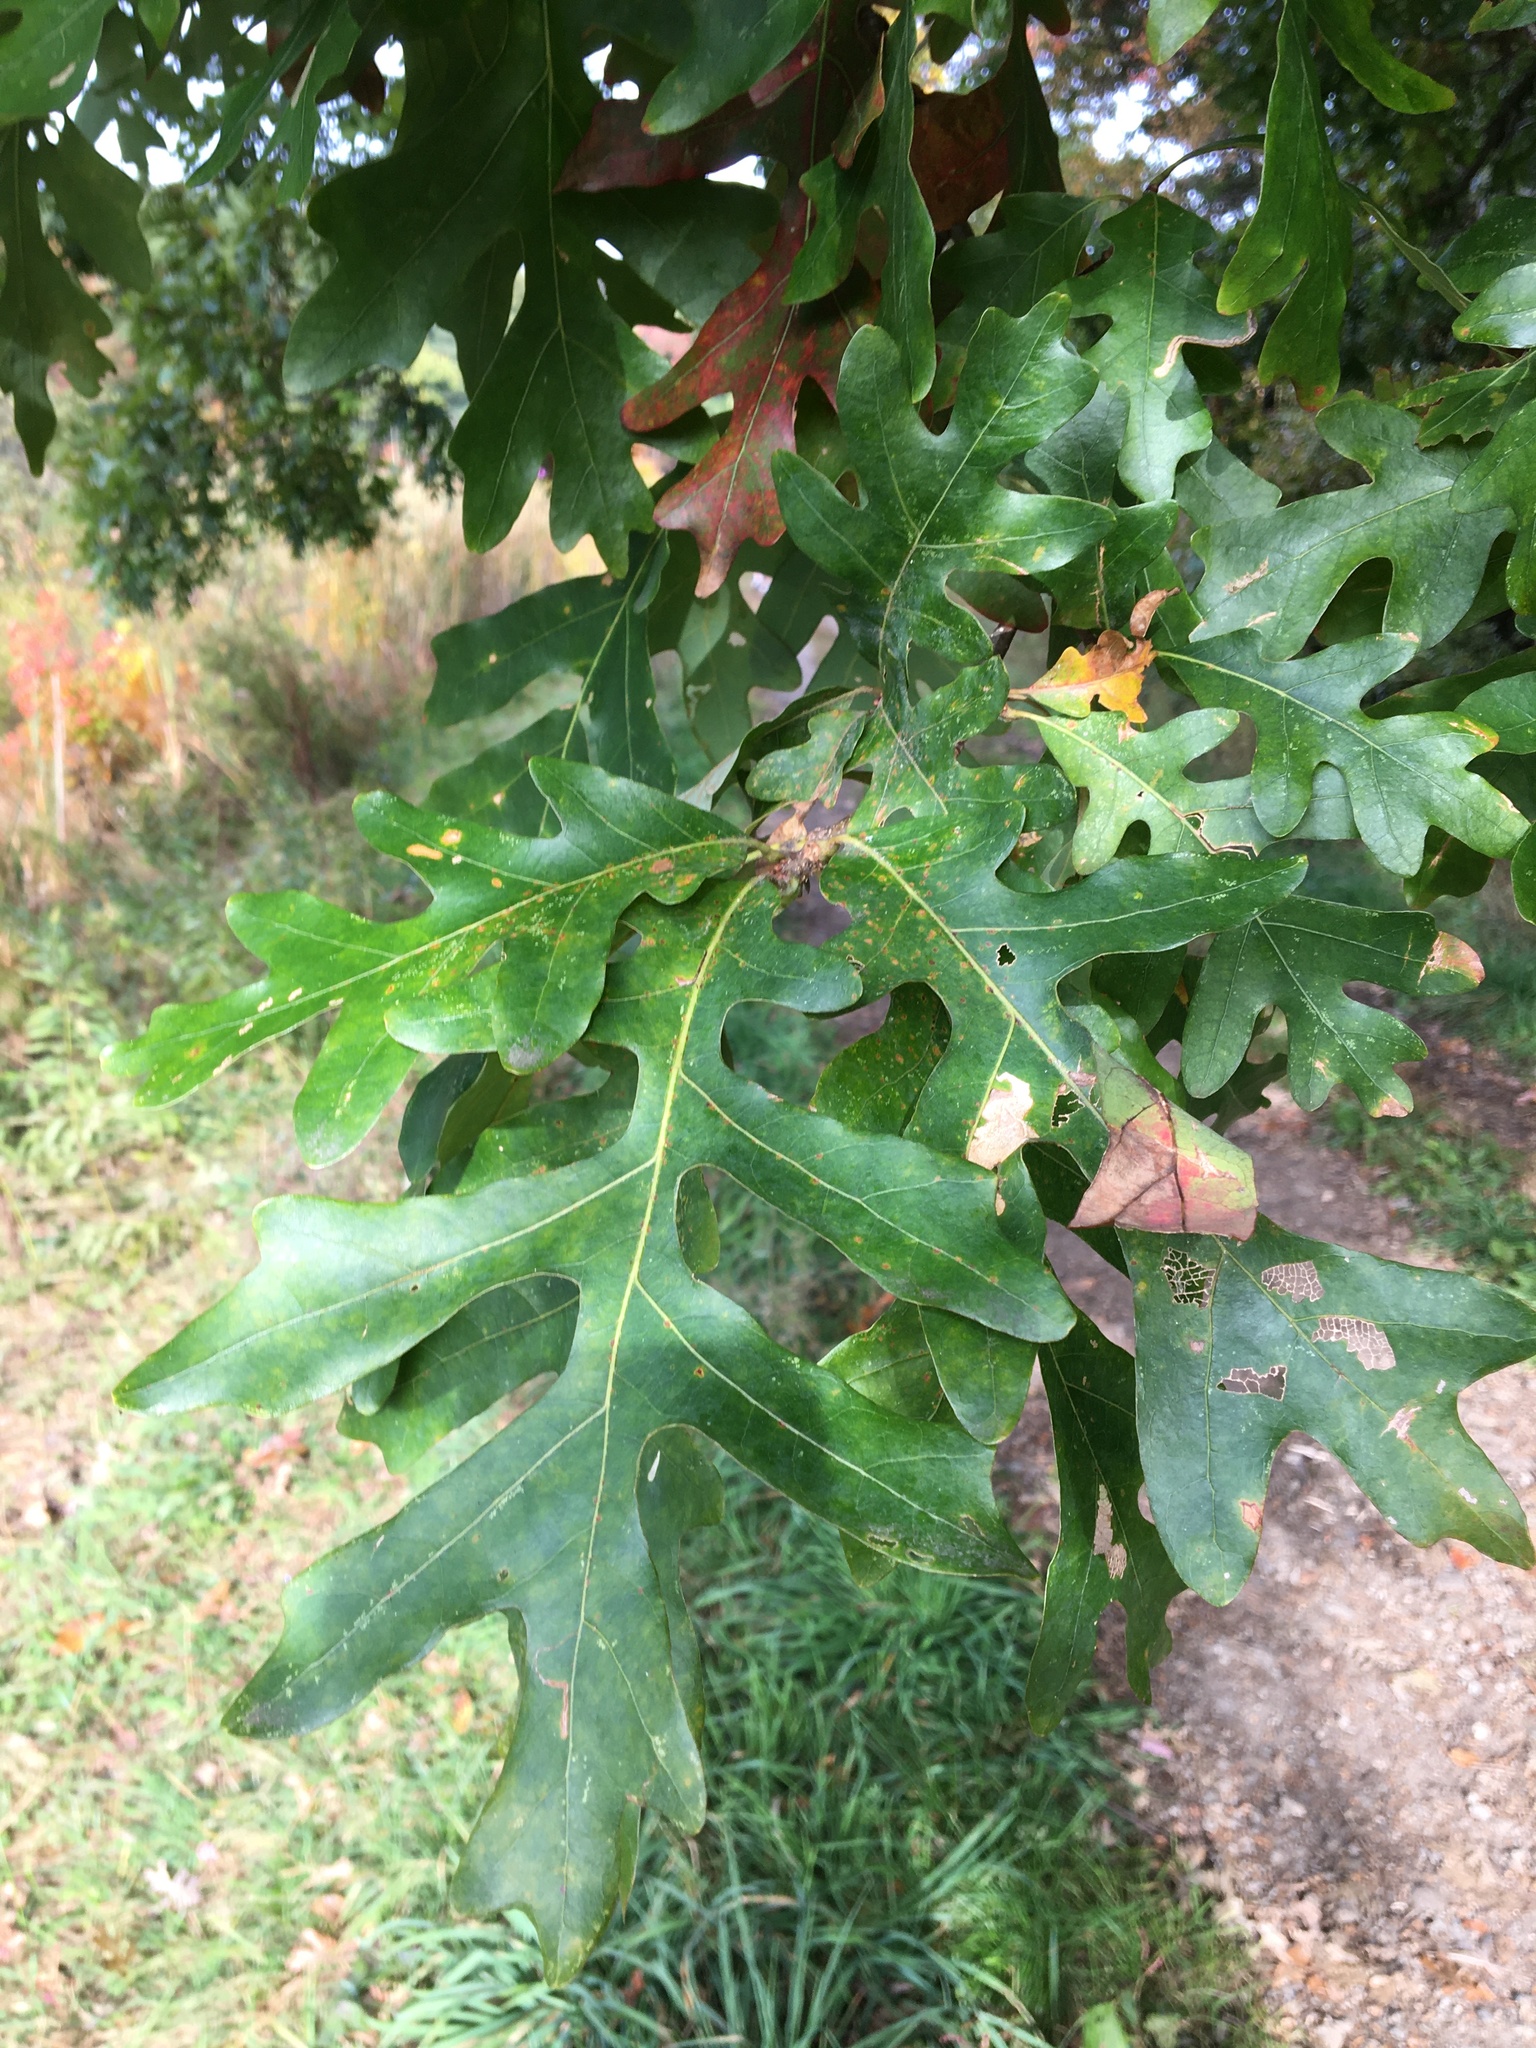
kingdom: Plantae
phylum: Tracheophyta
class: Magnoliopsida
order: Fagales
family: Fagaceae
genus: Quercus
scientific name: Quercus alba
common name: White oak
